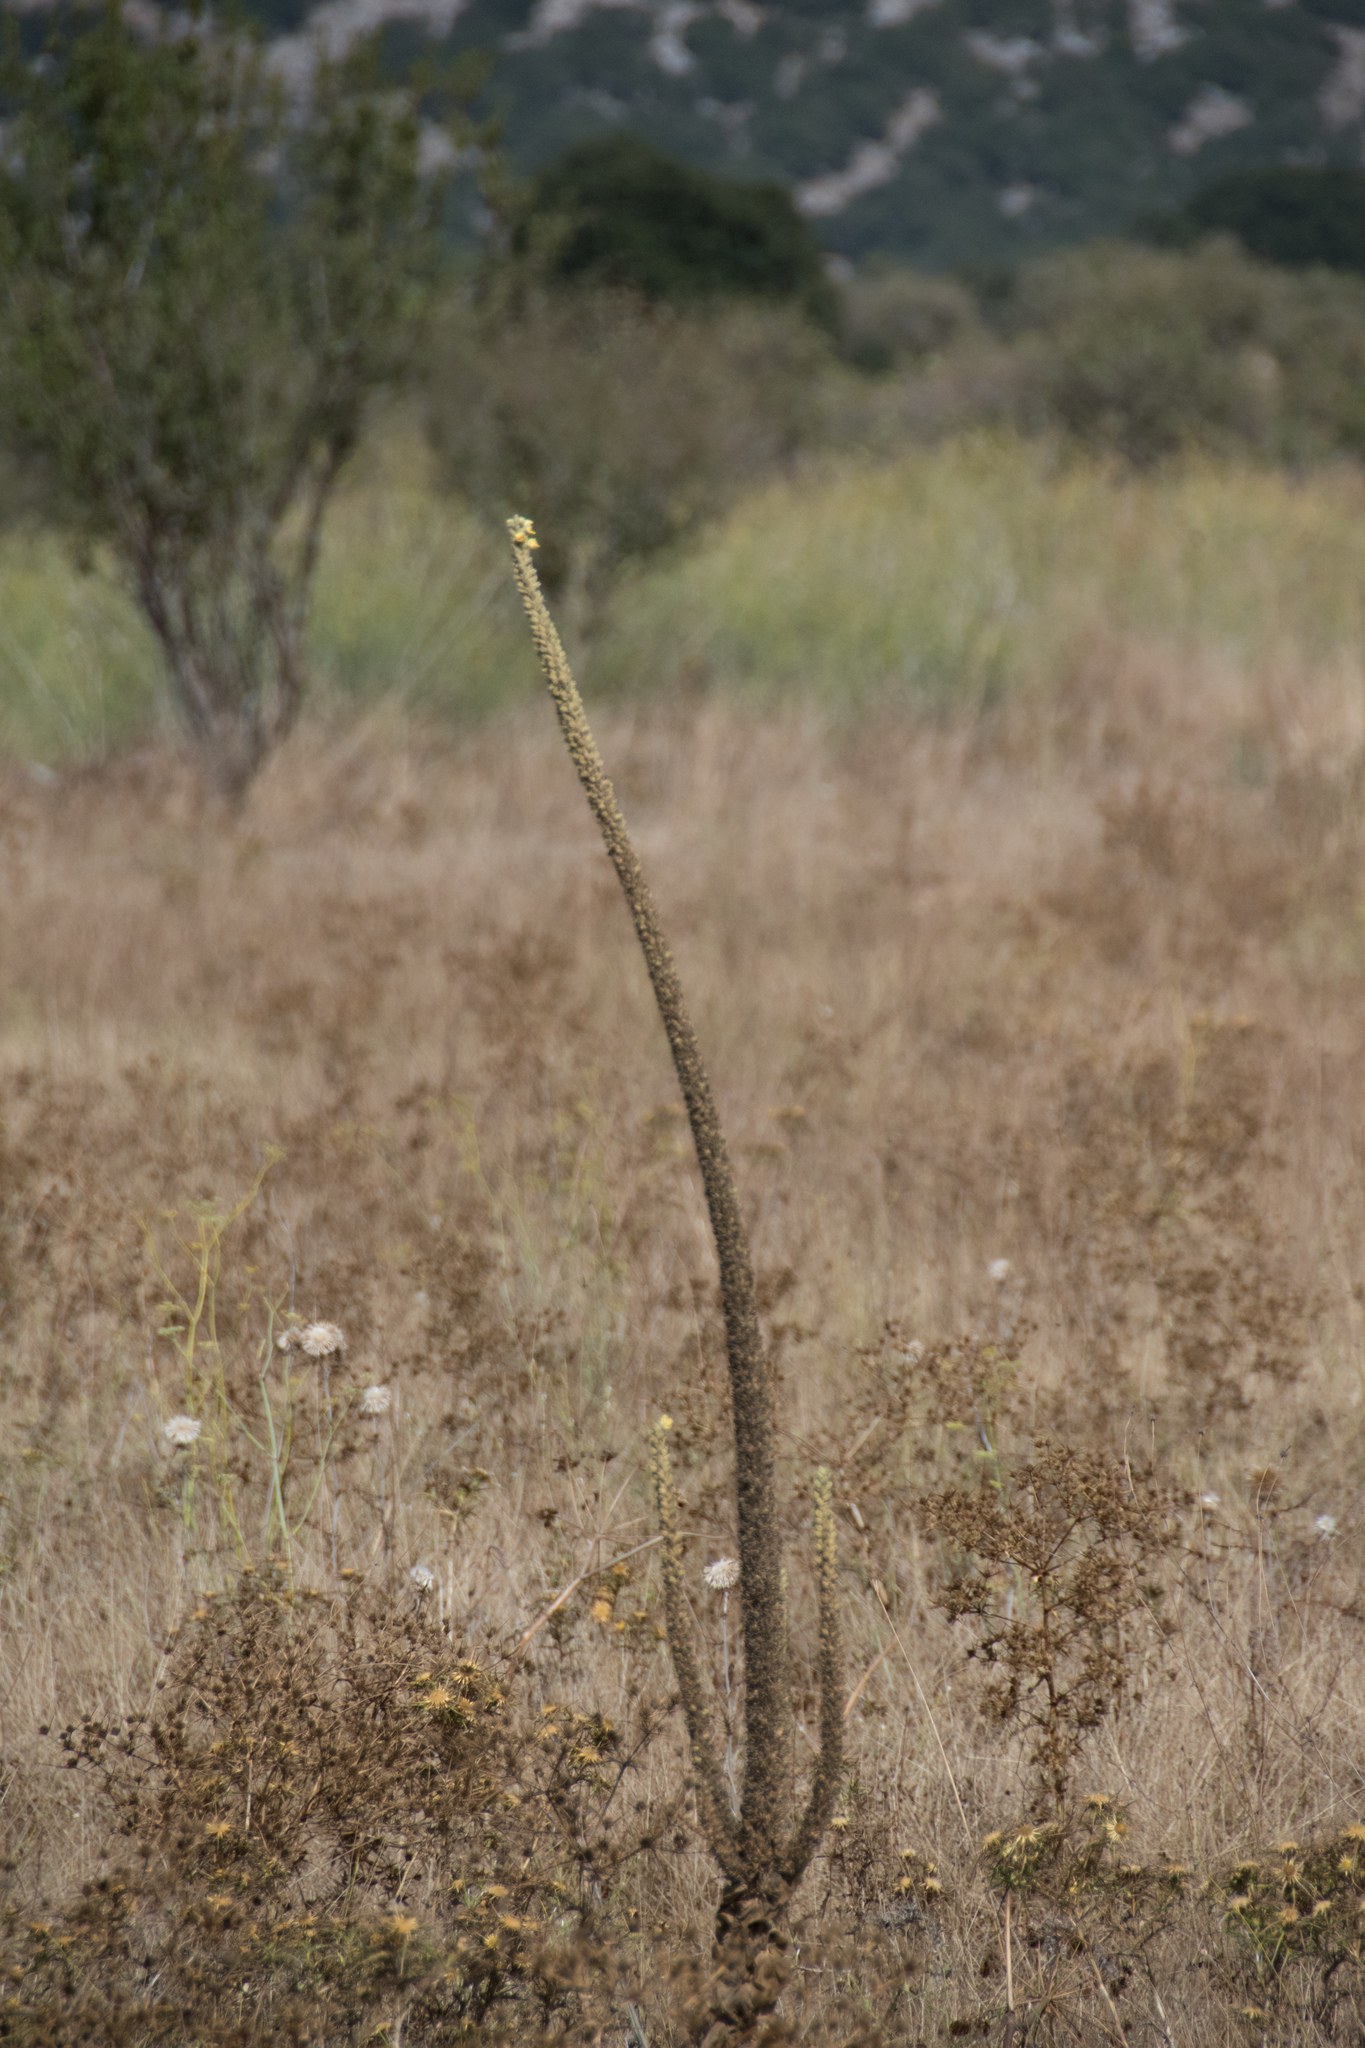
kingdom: Plantae
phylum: Tracheophyta
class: Magnoliopsida
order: Lamiales
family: Scrophulariaceae
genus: Verbascum
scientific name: Verbascum macrurum
